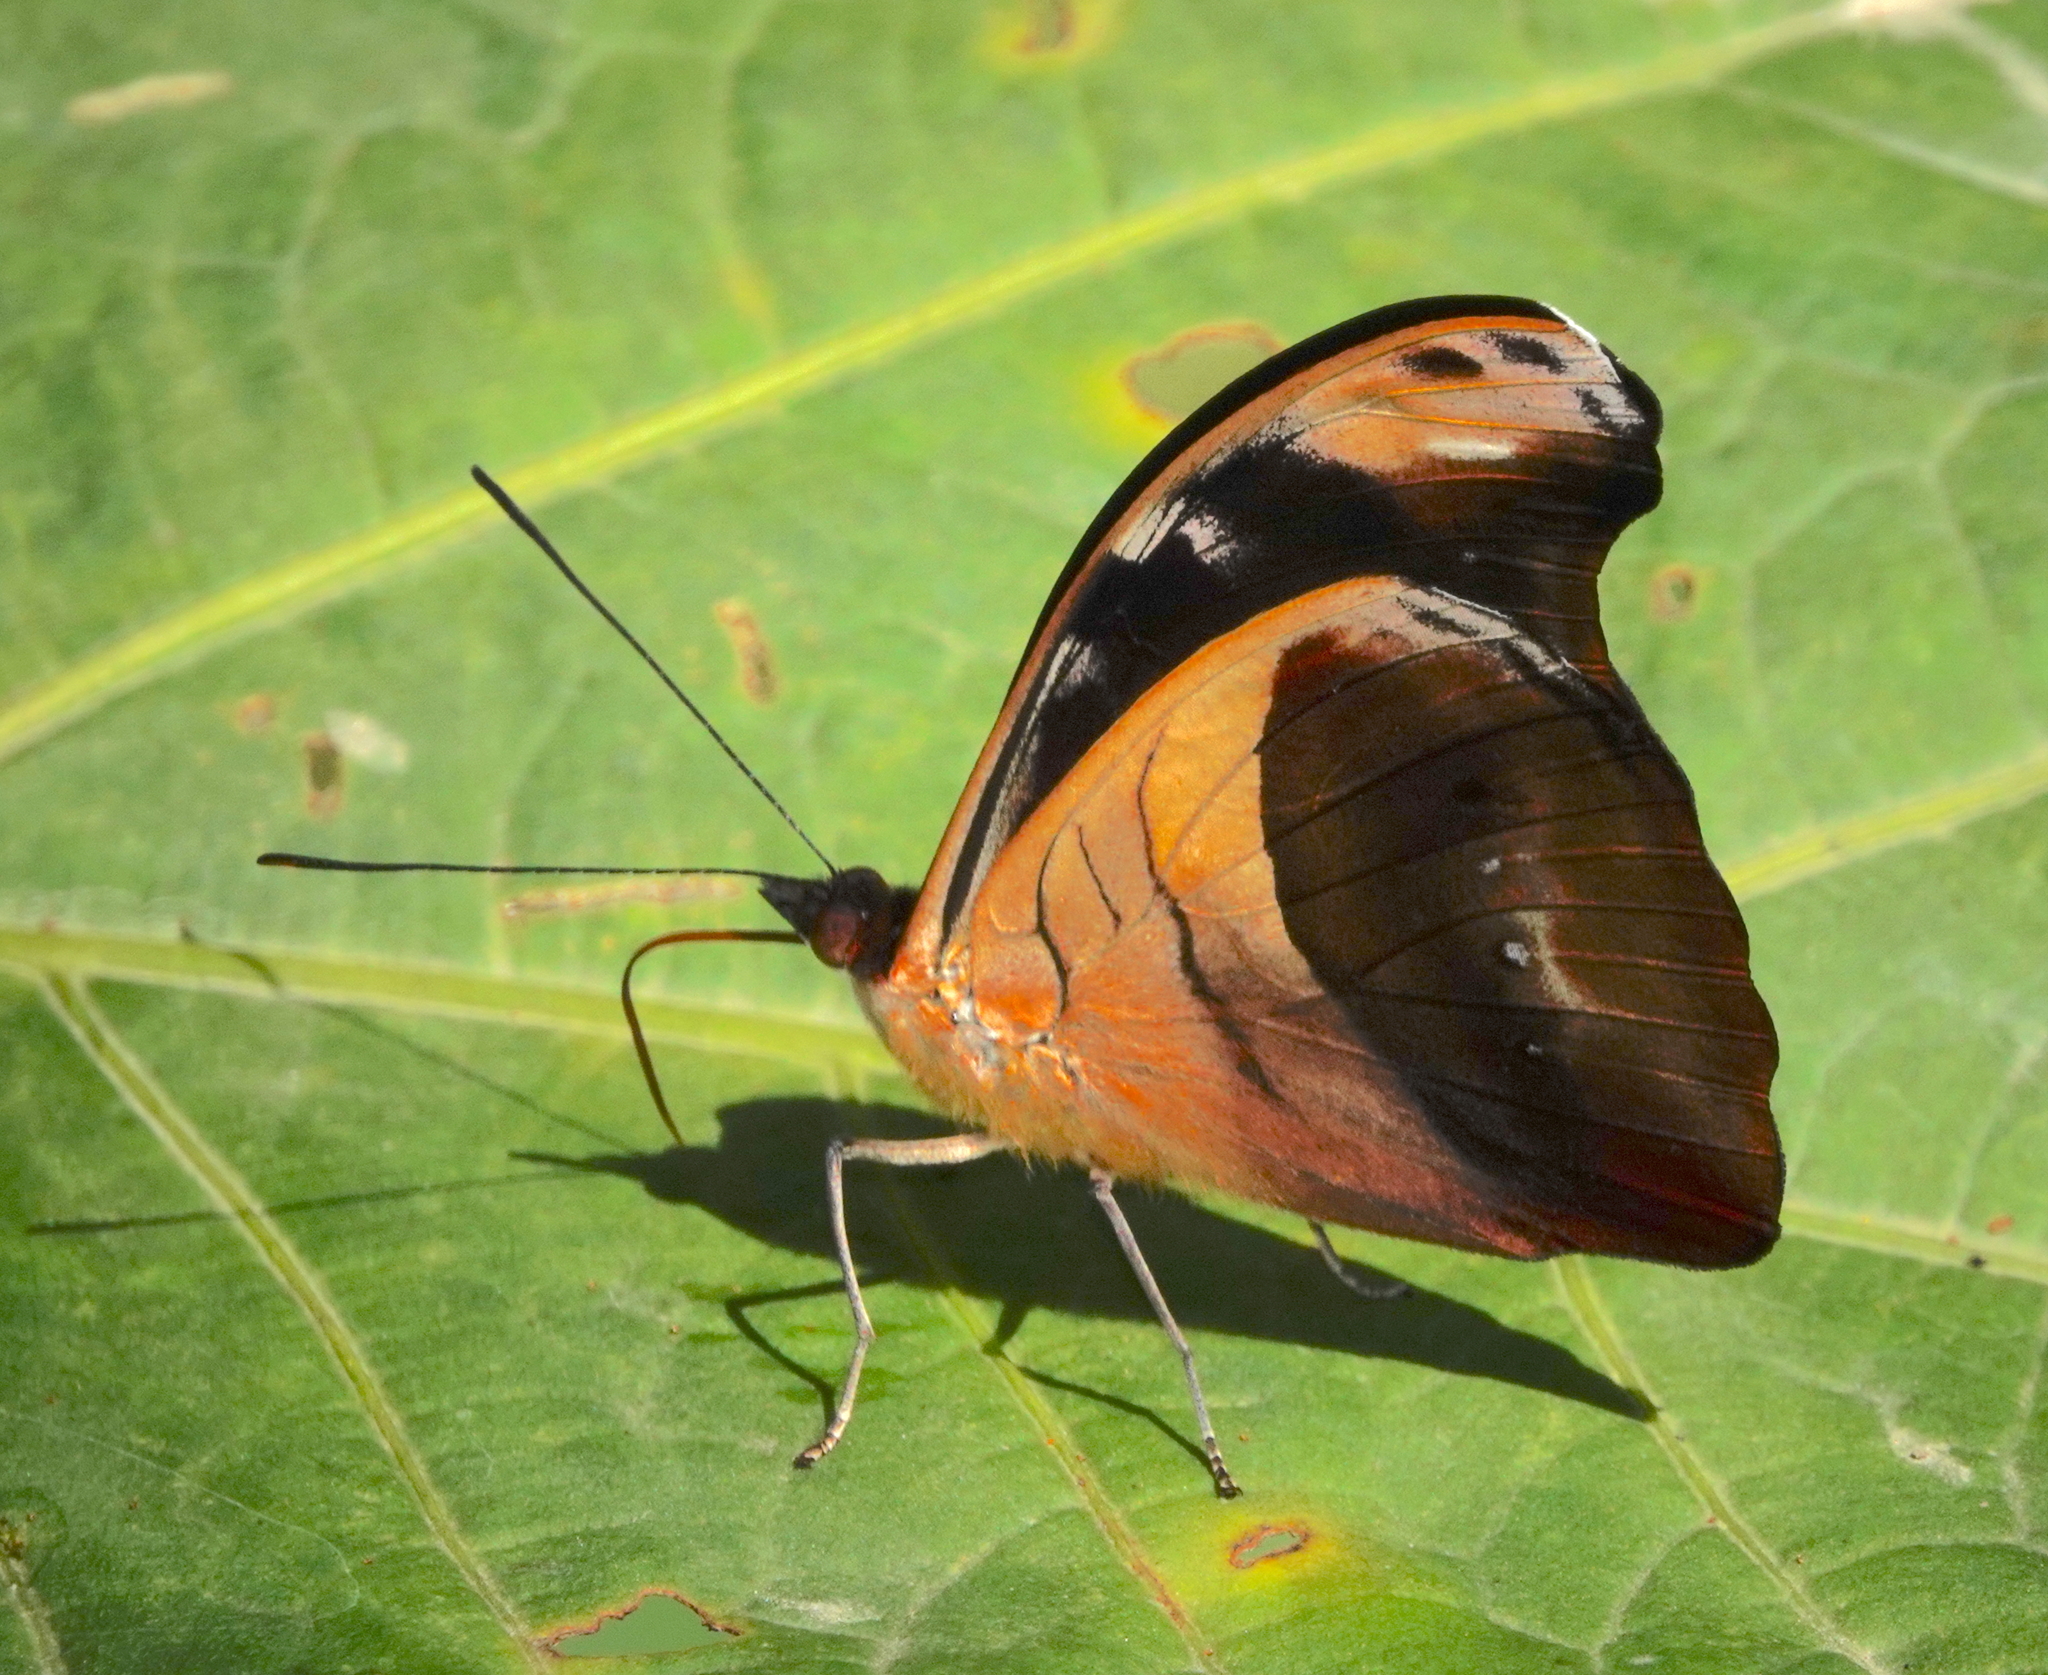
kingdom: Animalia
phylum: Arthropoda
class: Insecta
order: Lepidoptera
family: Nymphalidae
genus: Catonephele
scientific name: Catonephele chromis
